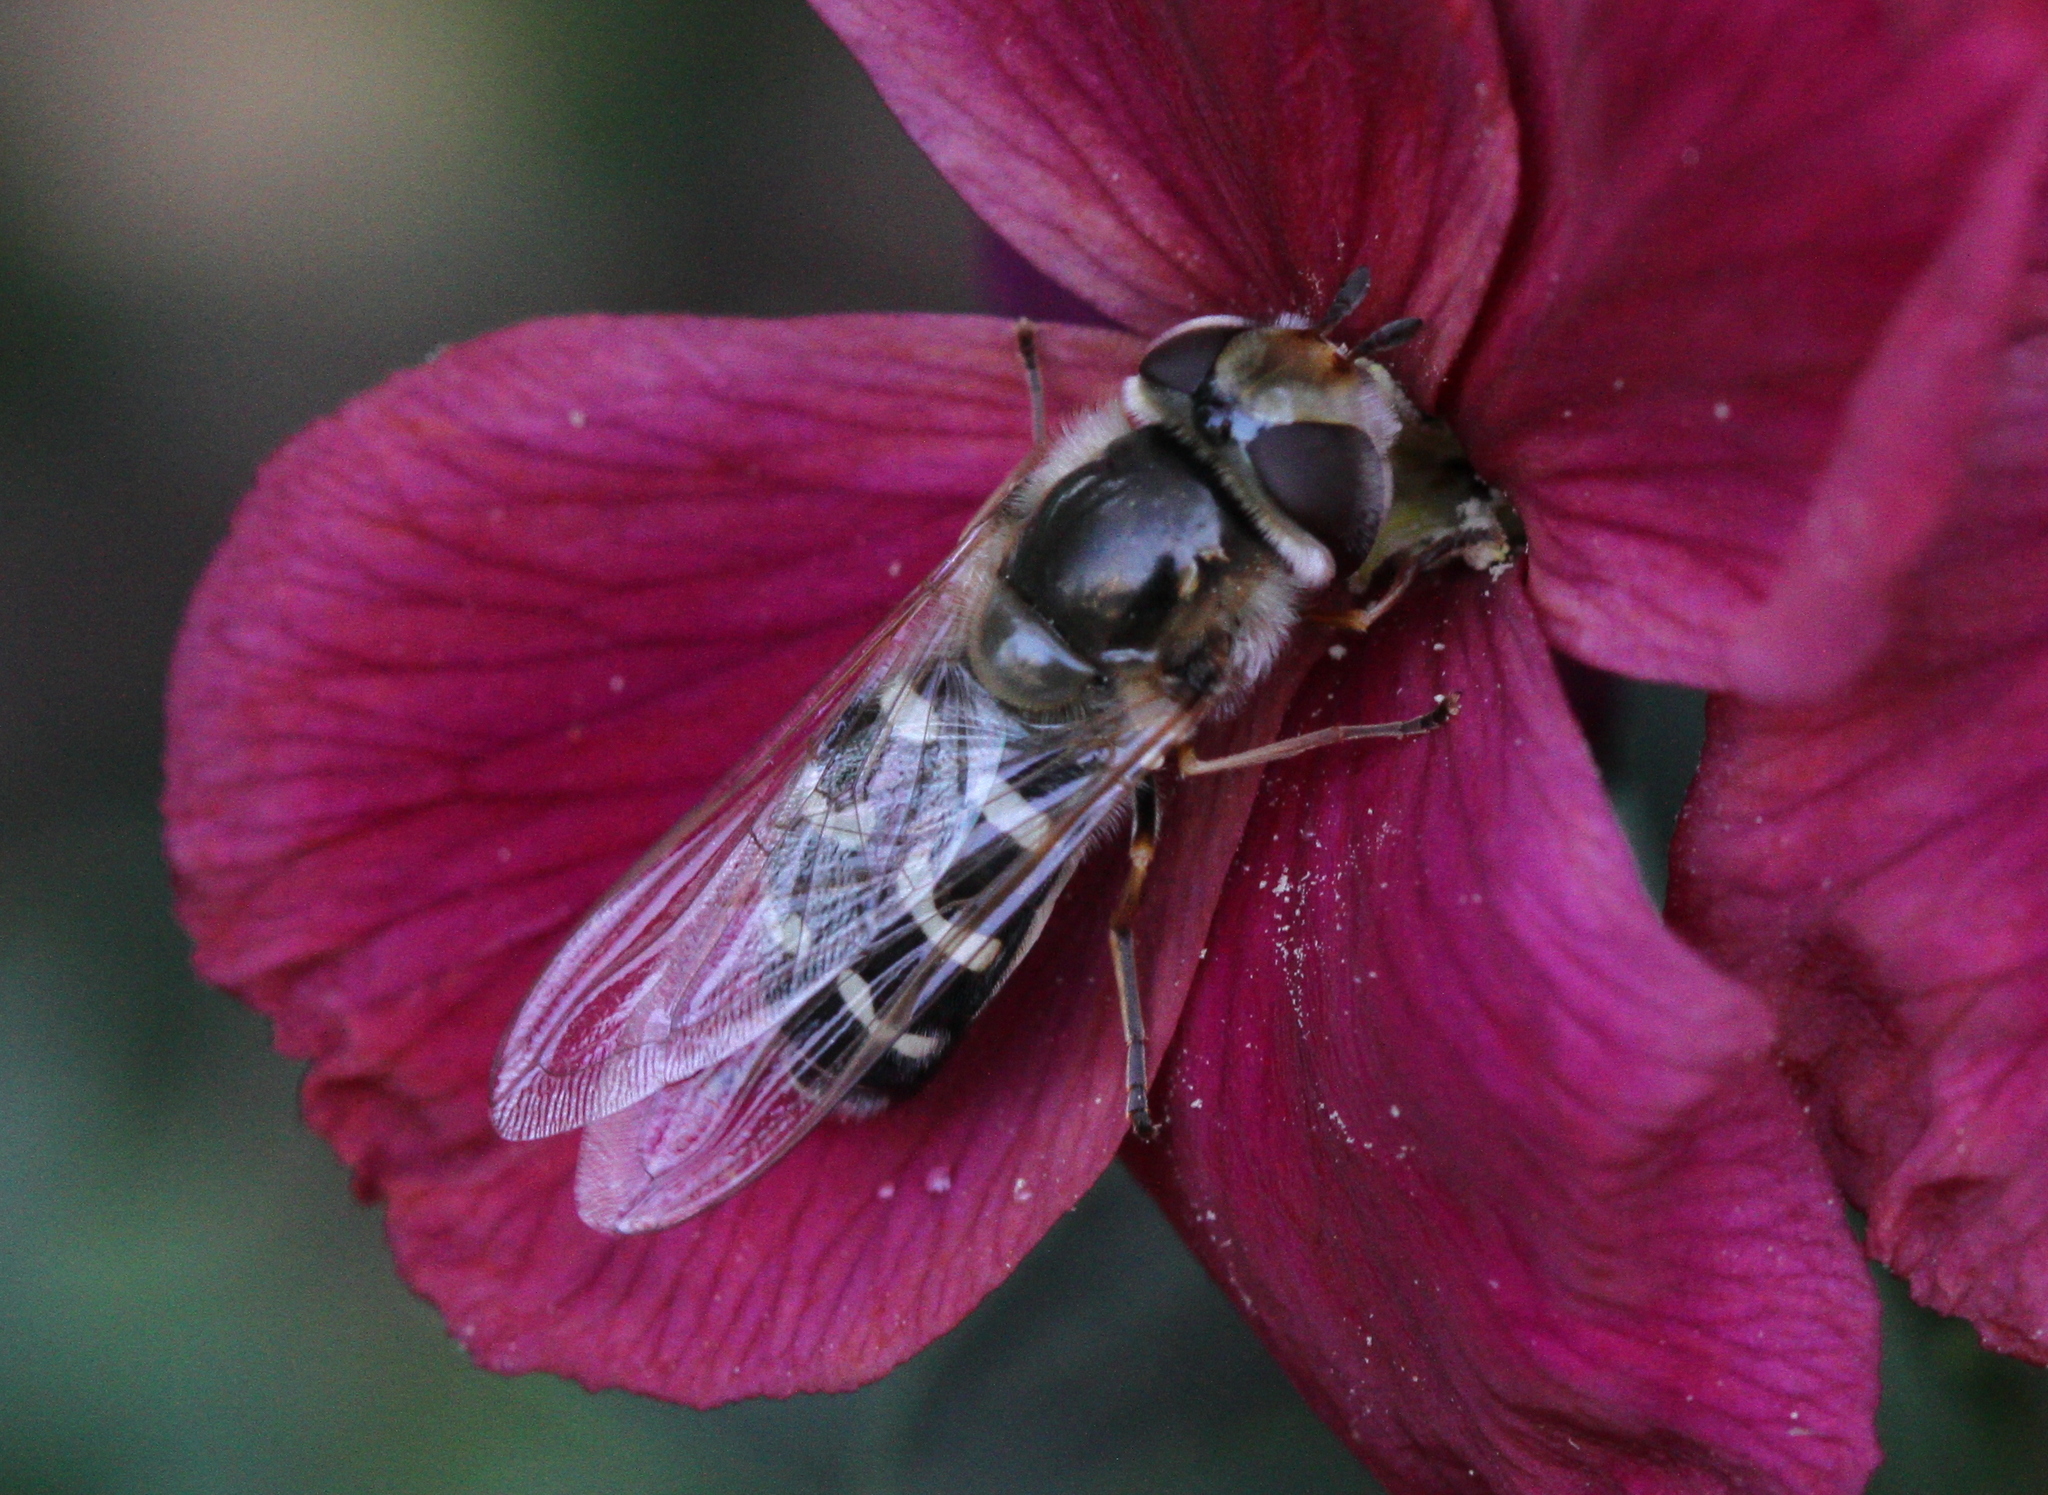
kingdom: Animalia
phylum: Arthropoda
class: Insecta
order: Diptera
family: Syrphidae
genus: Scaeva
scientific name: Scaeva pyrastri
